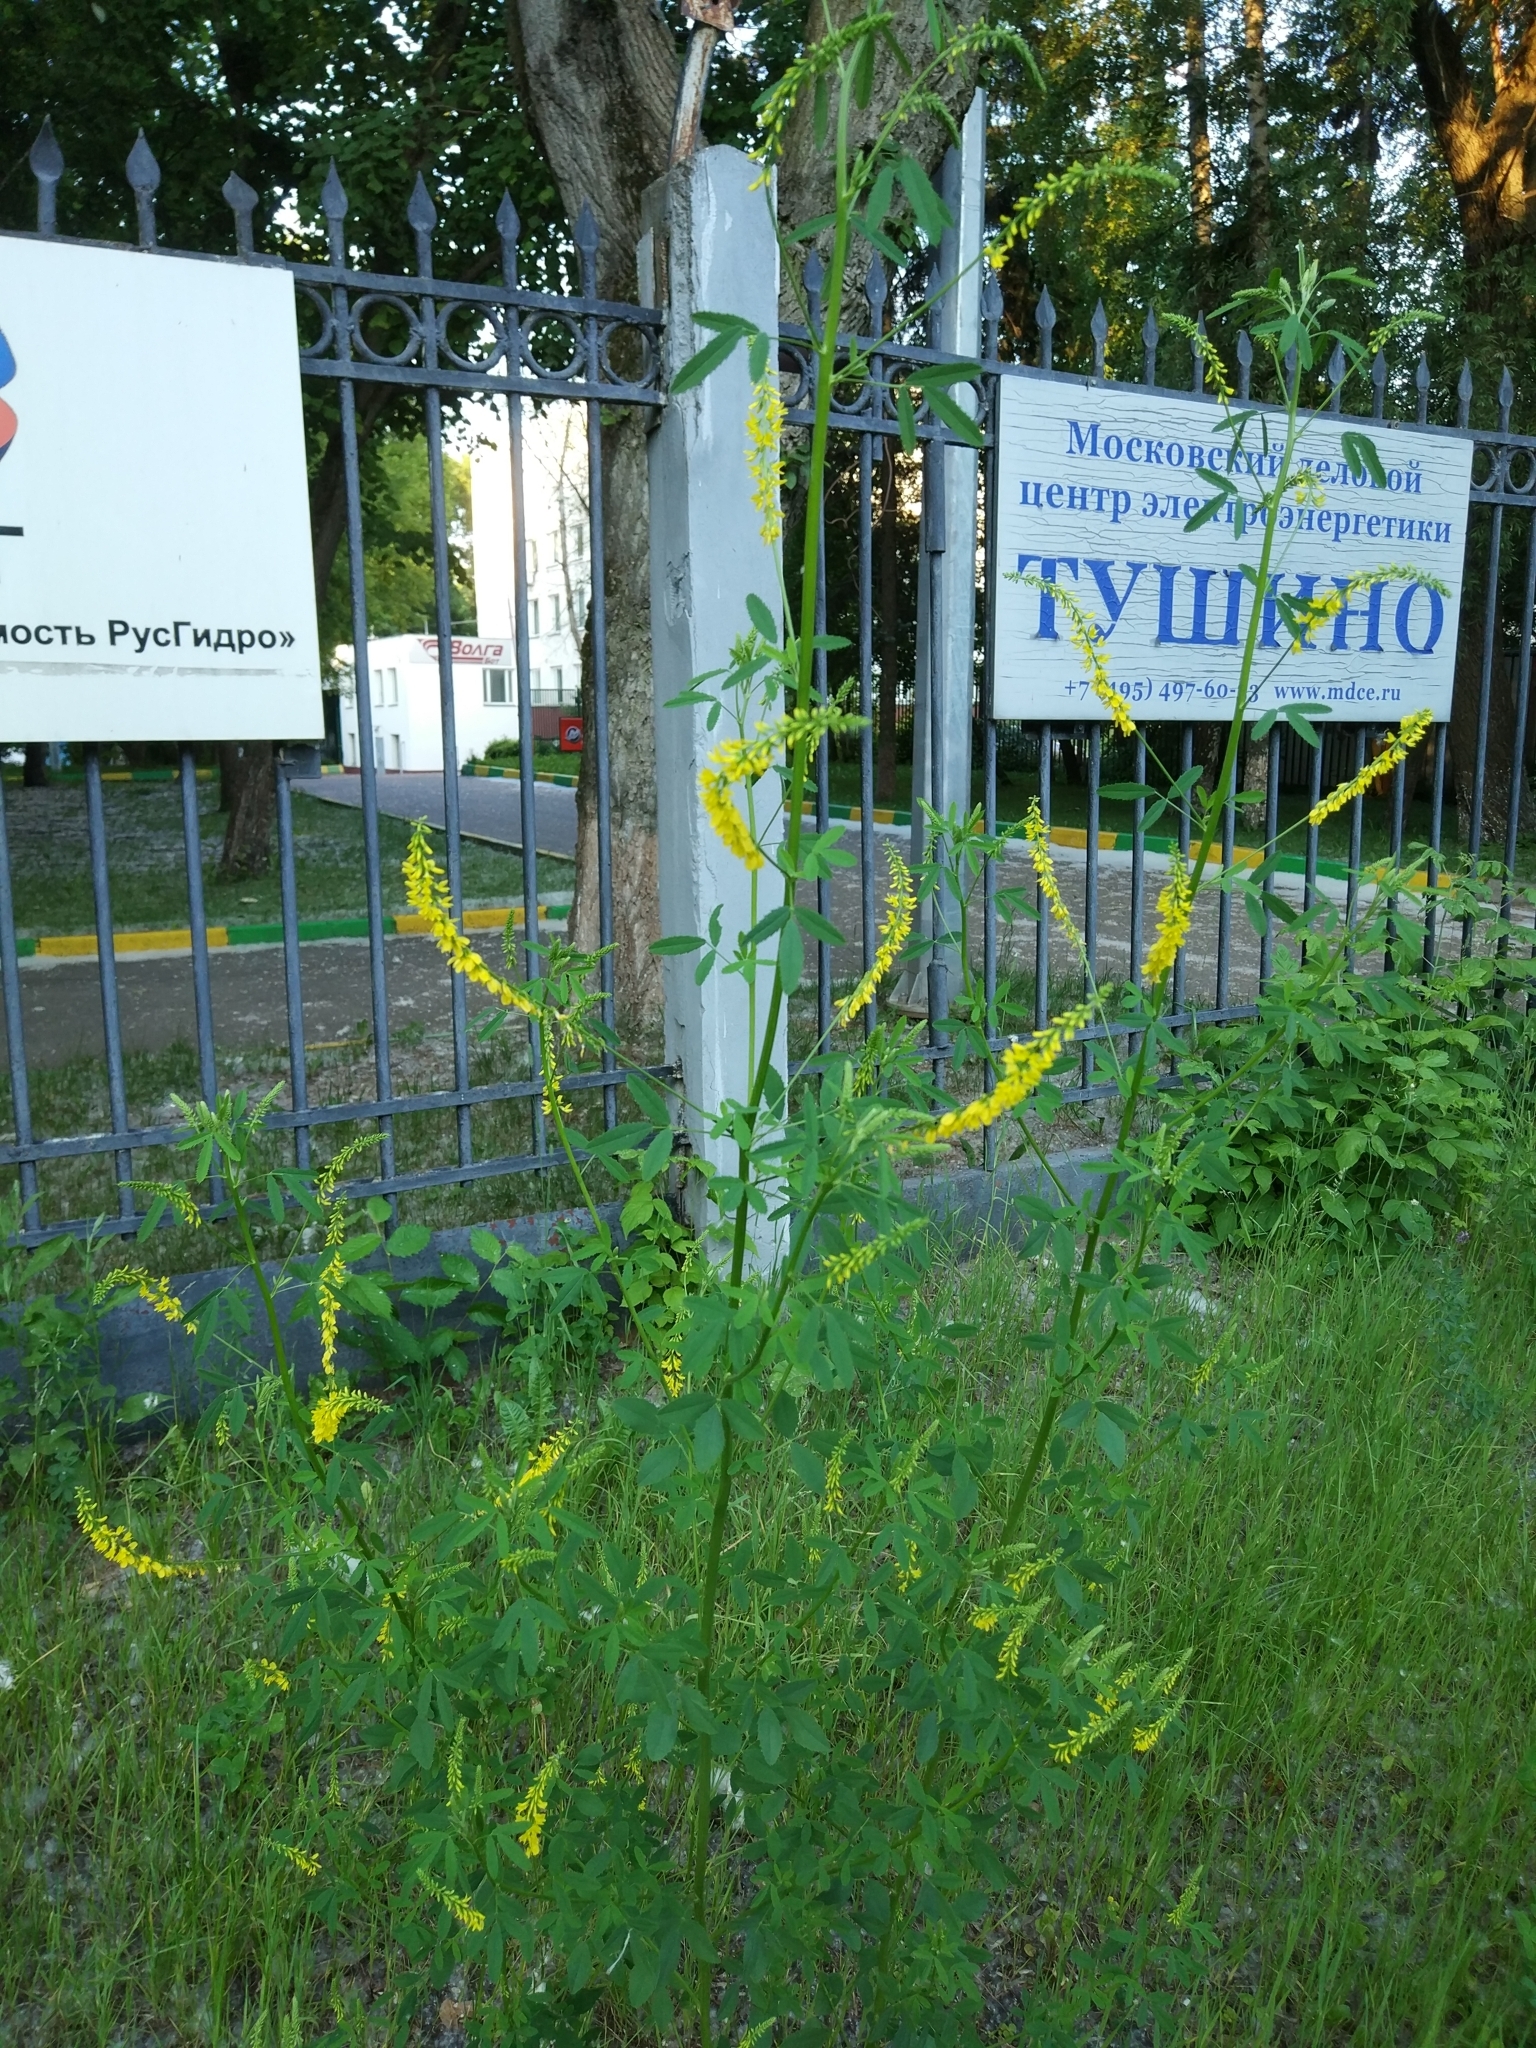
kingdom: Plantae
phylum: Tracheophyta
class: Magnoliopsida
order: Fabales
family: Fabaceae
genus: Melilotus
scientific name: Melilotus officinalis
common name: Sweetclover
